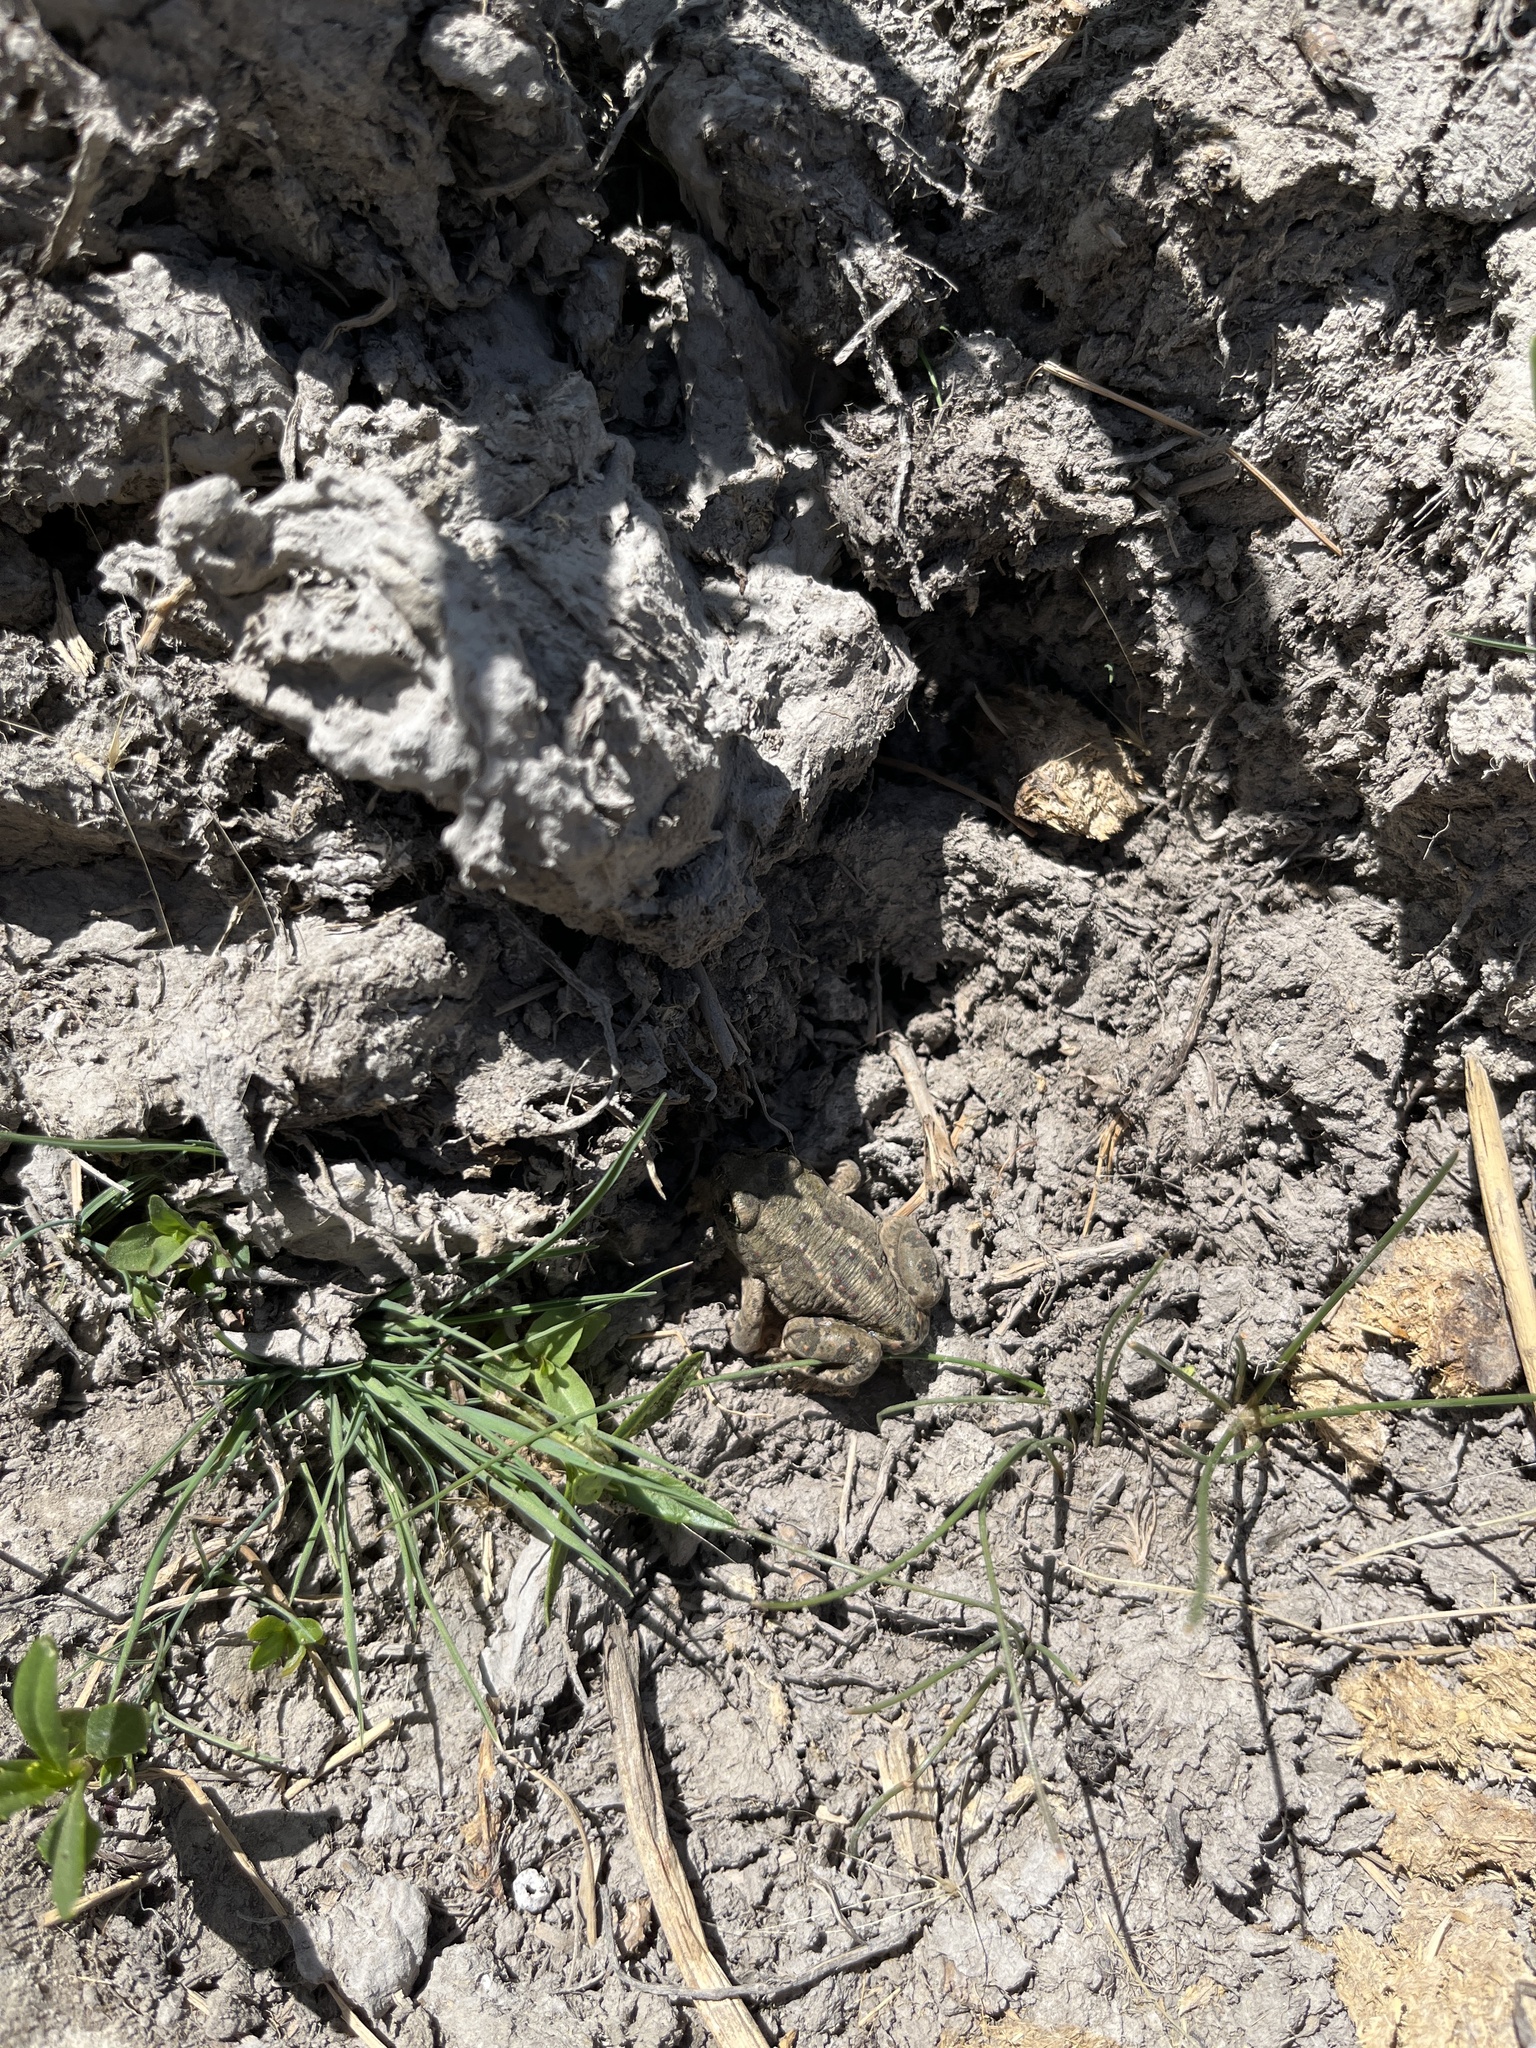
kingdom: Animalia
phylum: Chordata
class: Amphibia
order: Anura
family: Scaphiopodidae
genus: Spea
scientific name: Spea intermontana
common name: Great basin spadefoot
